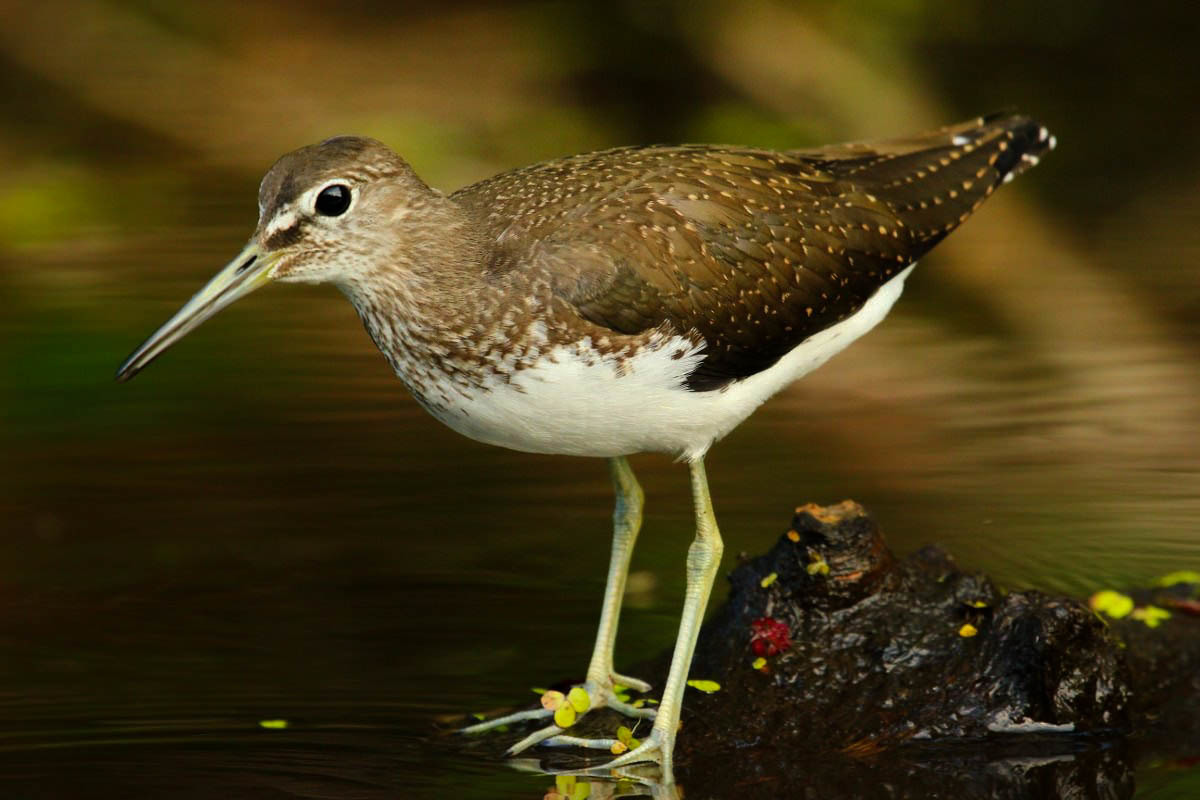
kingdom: Animalia
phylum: Chordata
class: Aves
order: Charadriiformes
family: Scolopacidae
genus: Tringa
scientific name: Tringa ochropus
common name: Green sandpiper
